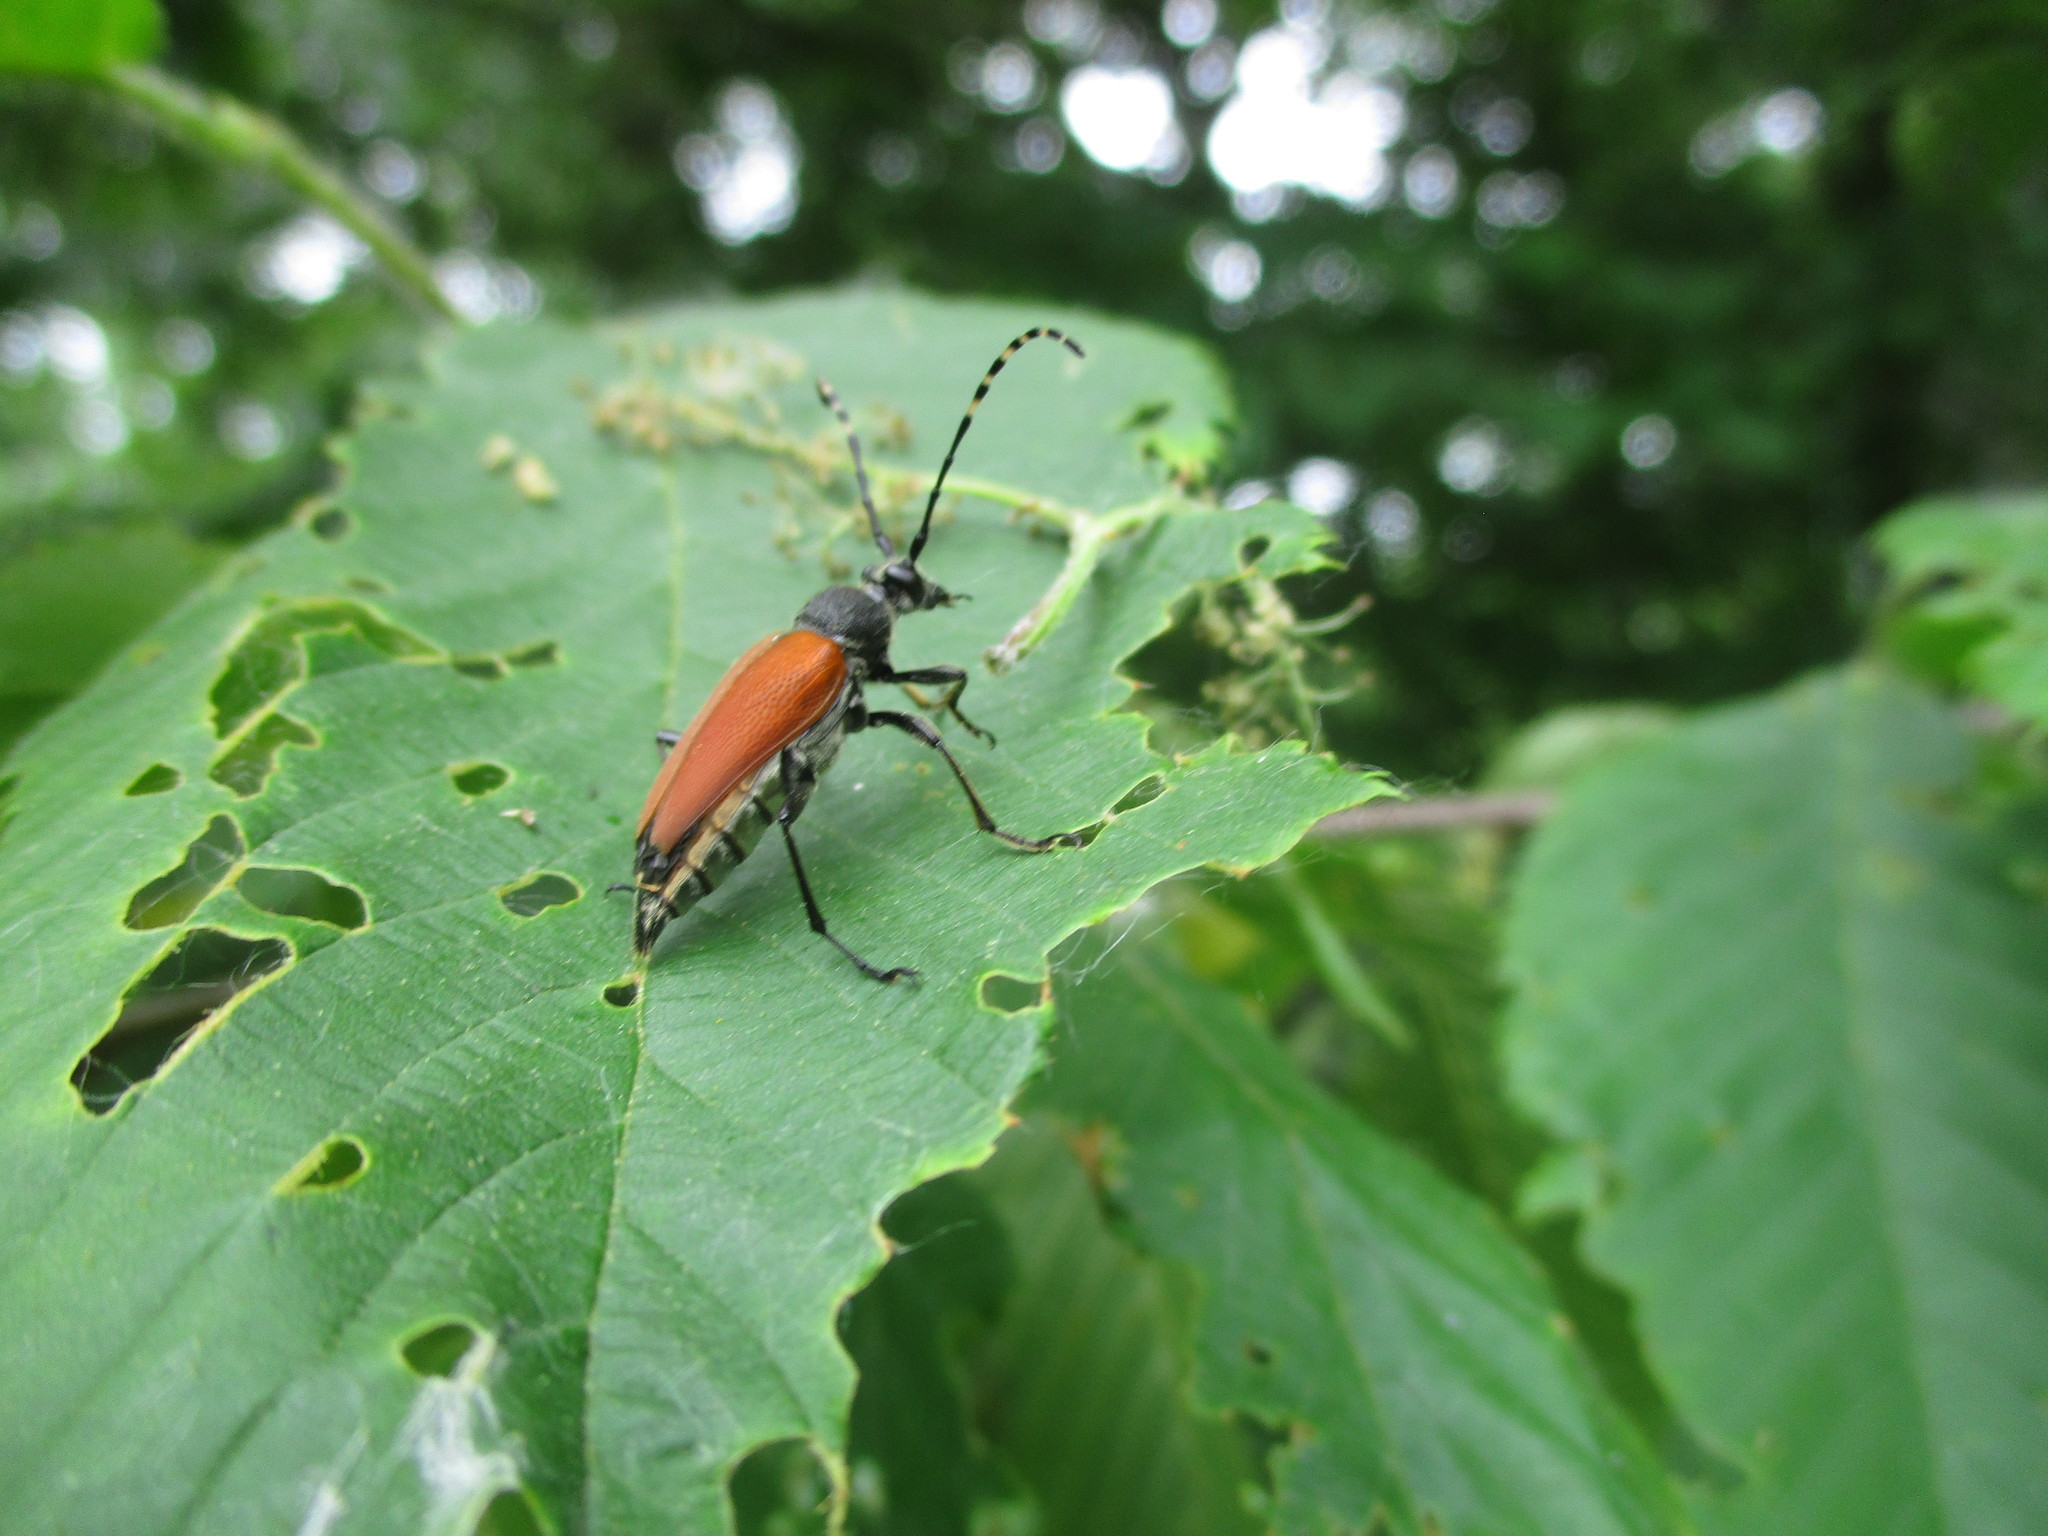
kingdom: Animalia
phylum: Arthropoda
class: Insecta
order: Coleoptera
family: Cerambycidae
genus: Brachyleptura
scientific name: Brachyleptura rubrica
